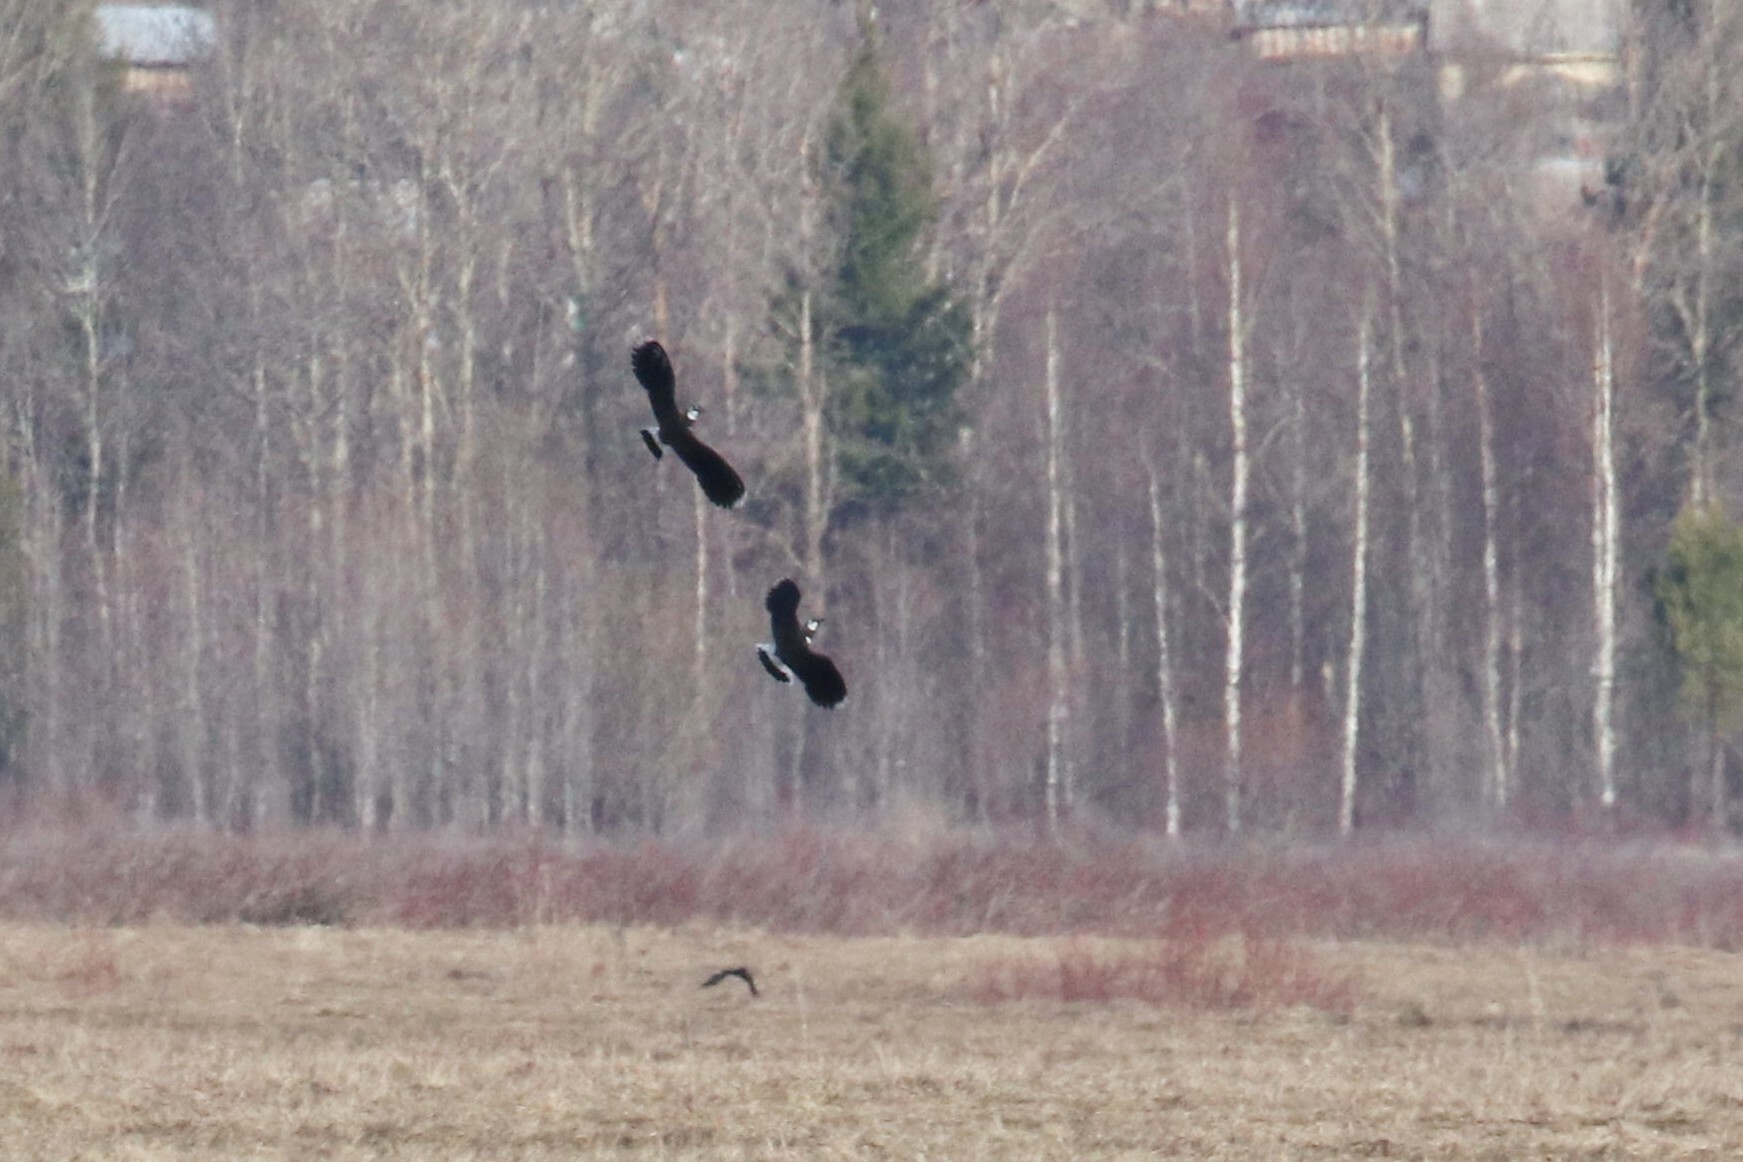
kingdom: Animalia
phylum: Chordata
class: Aves
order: Charadriiformes
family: Charadriidae
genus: Vanellus
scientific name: Vanellus vanellus
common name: Northern lapwing
